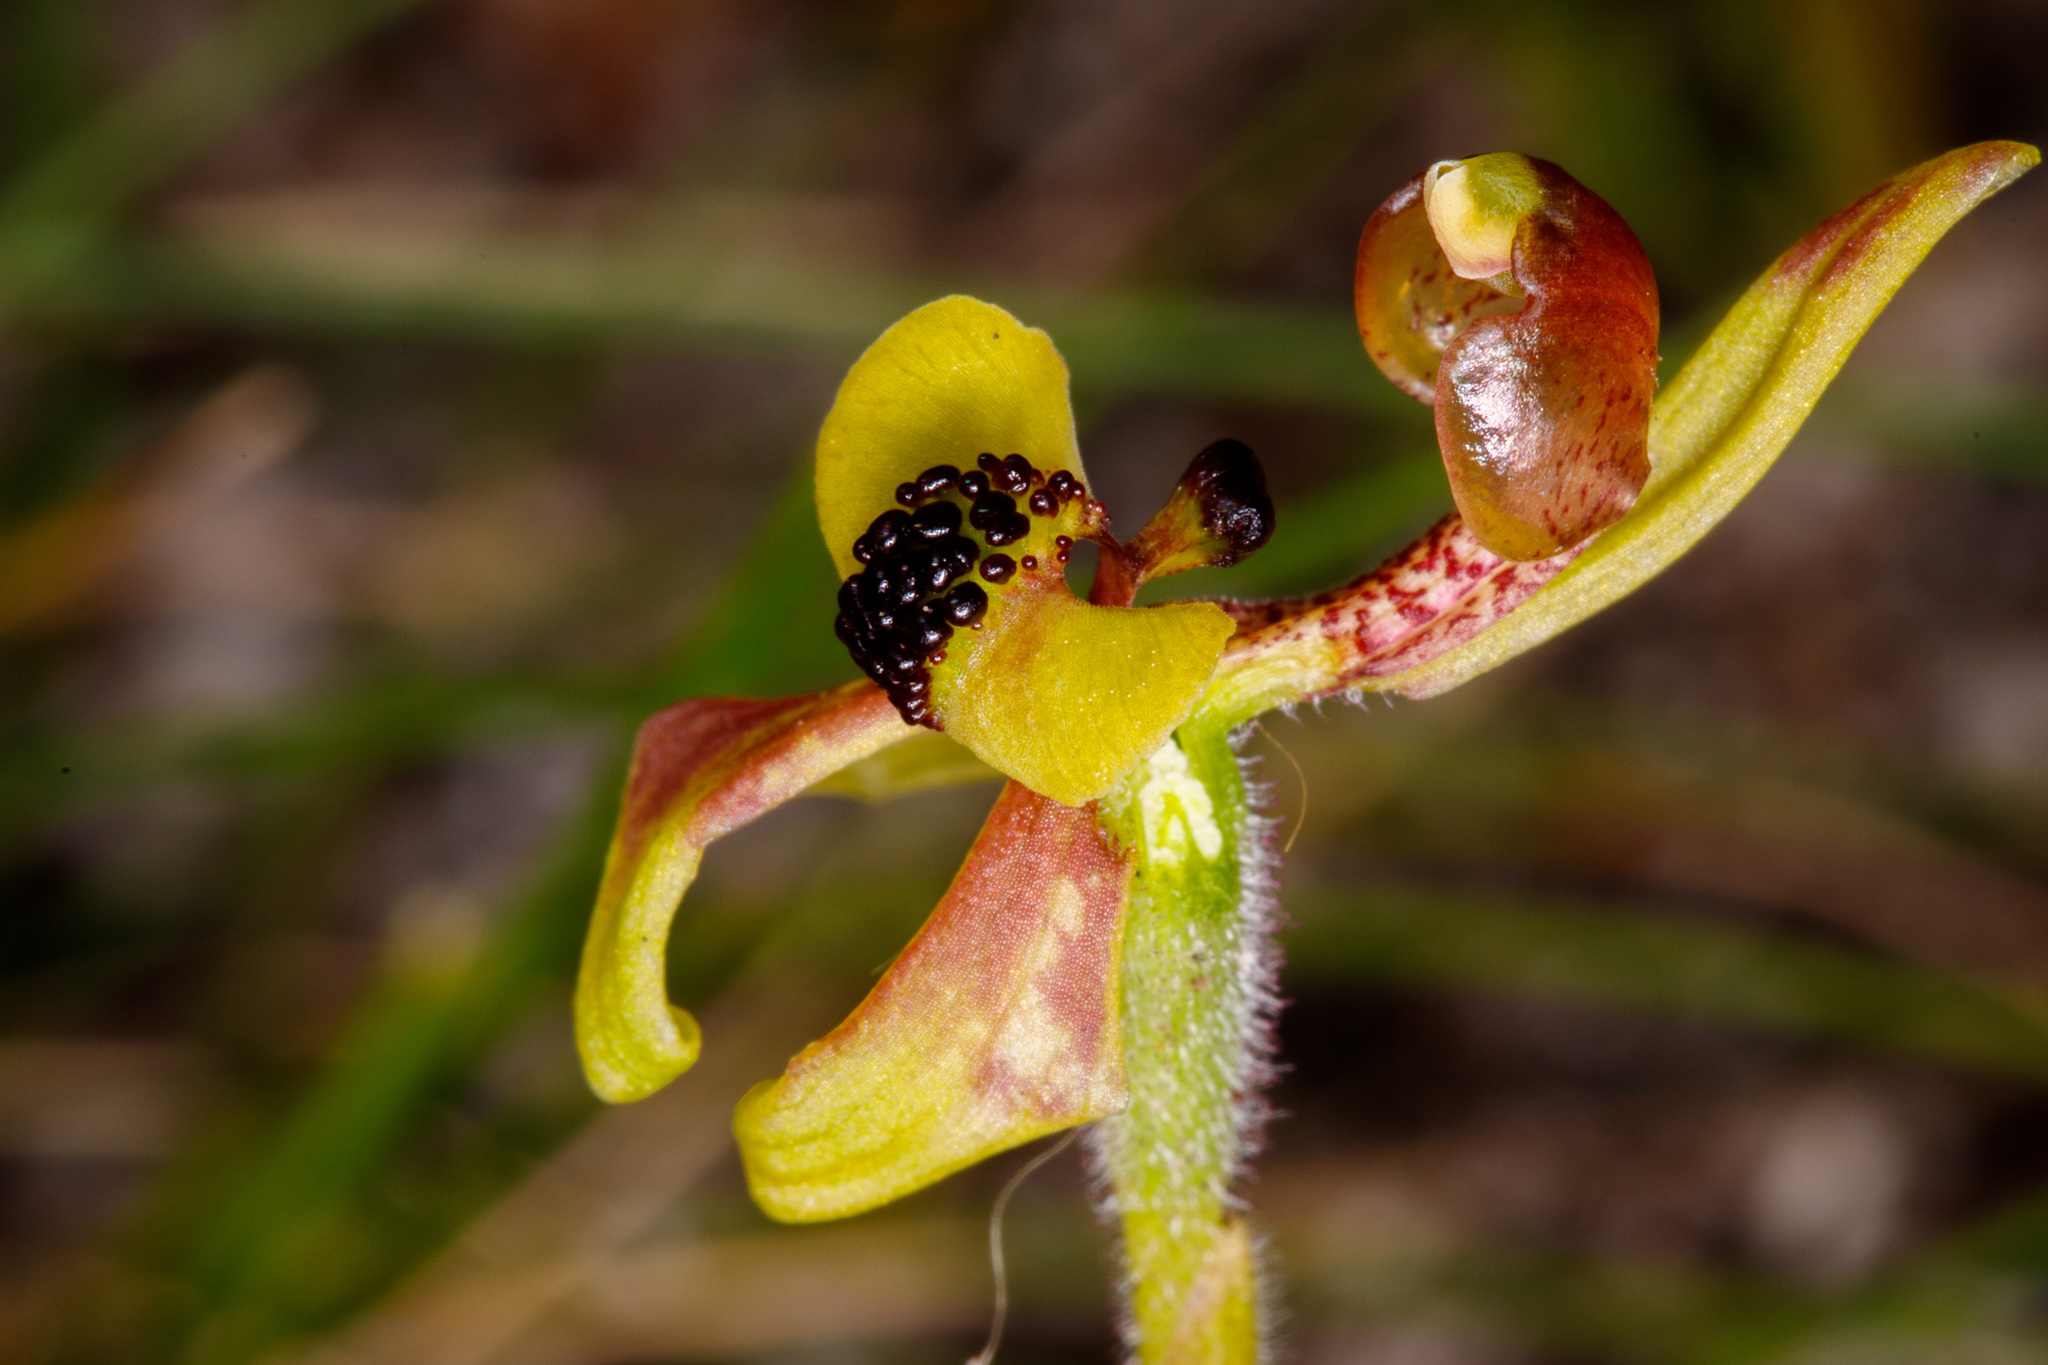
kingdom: Plantae
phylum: Tracheophyta
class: Liliopsida
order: Asparagales
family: Orchidaceae
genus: Caladenia
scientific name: Caladenia bryceana
